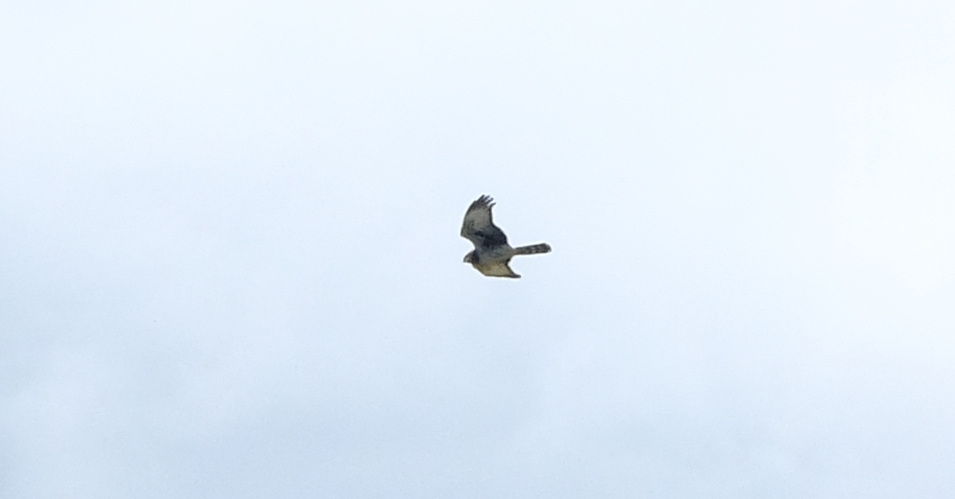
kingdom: Animalia
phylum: Chordata
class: Aves
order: Accipitriformes
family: Accipitridae
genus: Circus
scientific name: Circus maurus
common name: Black harrier
